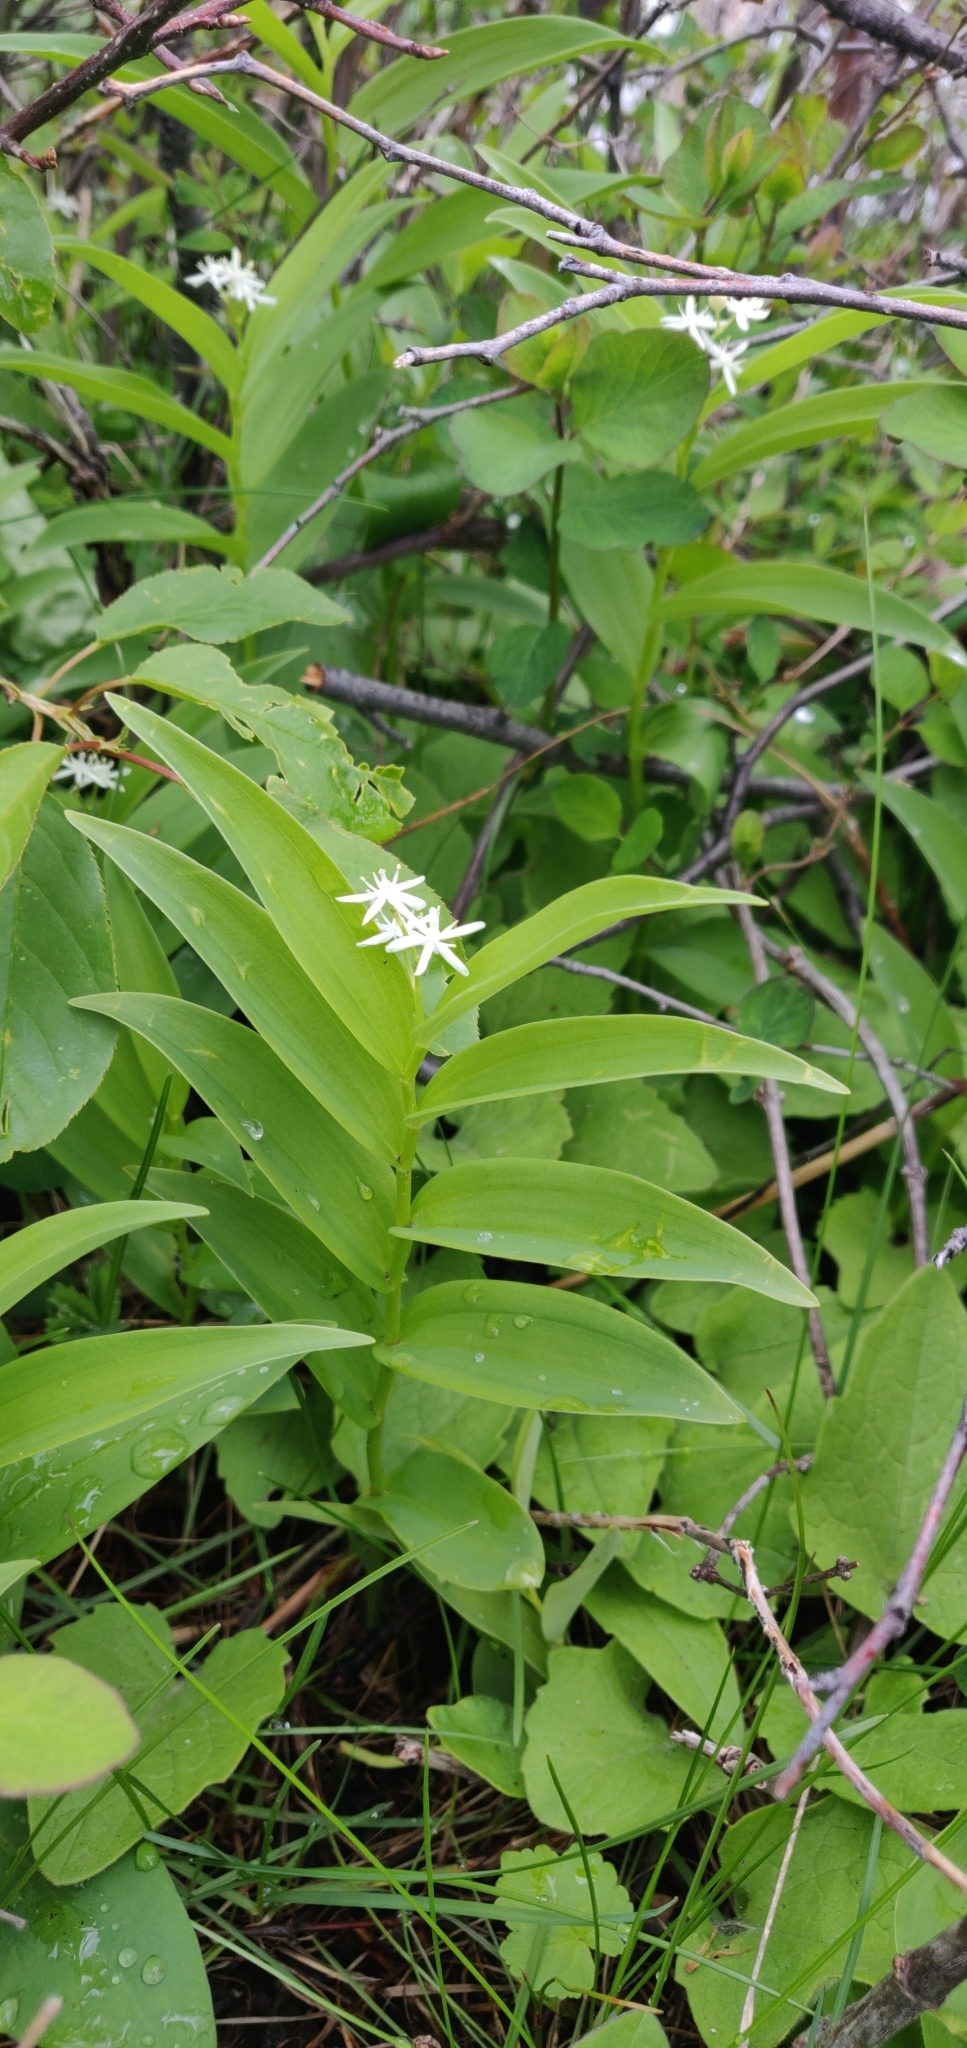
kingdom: Plantae
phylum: Tracheophyta
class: Liliopsida
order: Asparagales
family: Asparagaceae
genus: Maianthemum
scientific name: Maianthemum stellatum
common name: Little false solomon's seal
